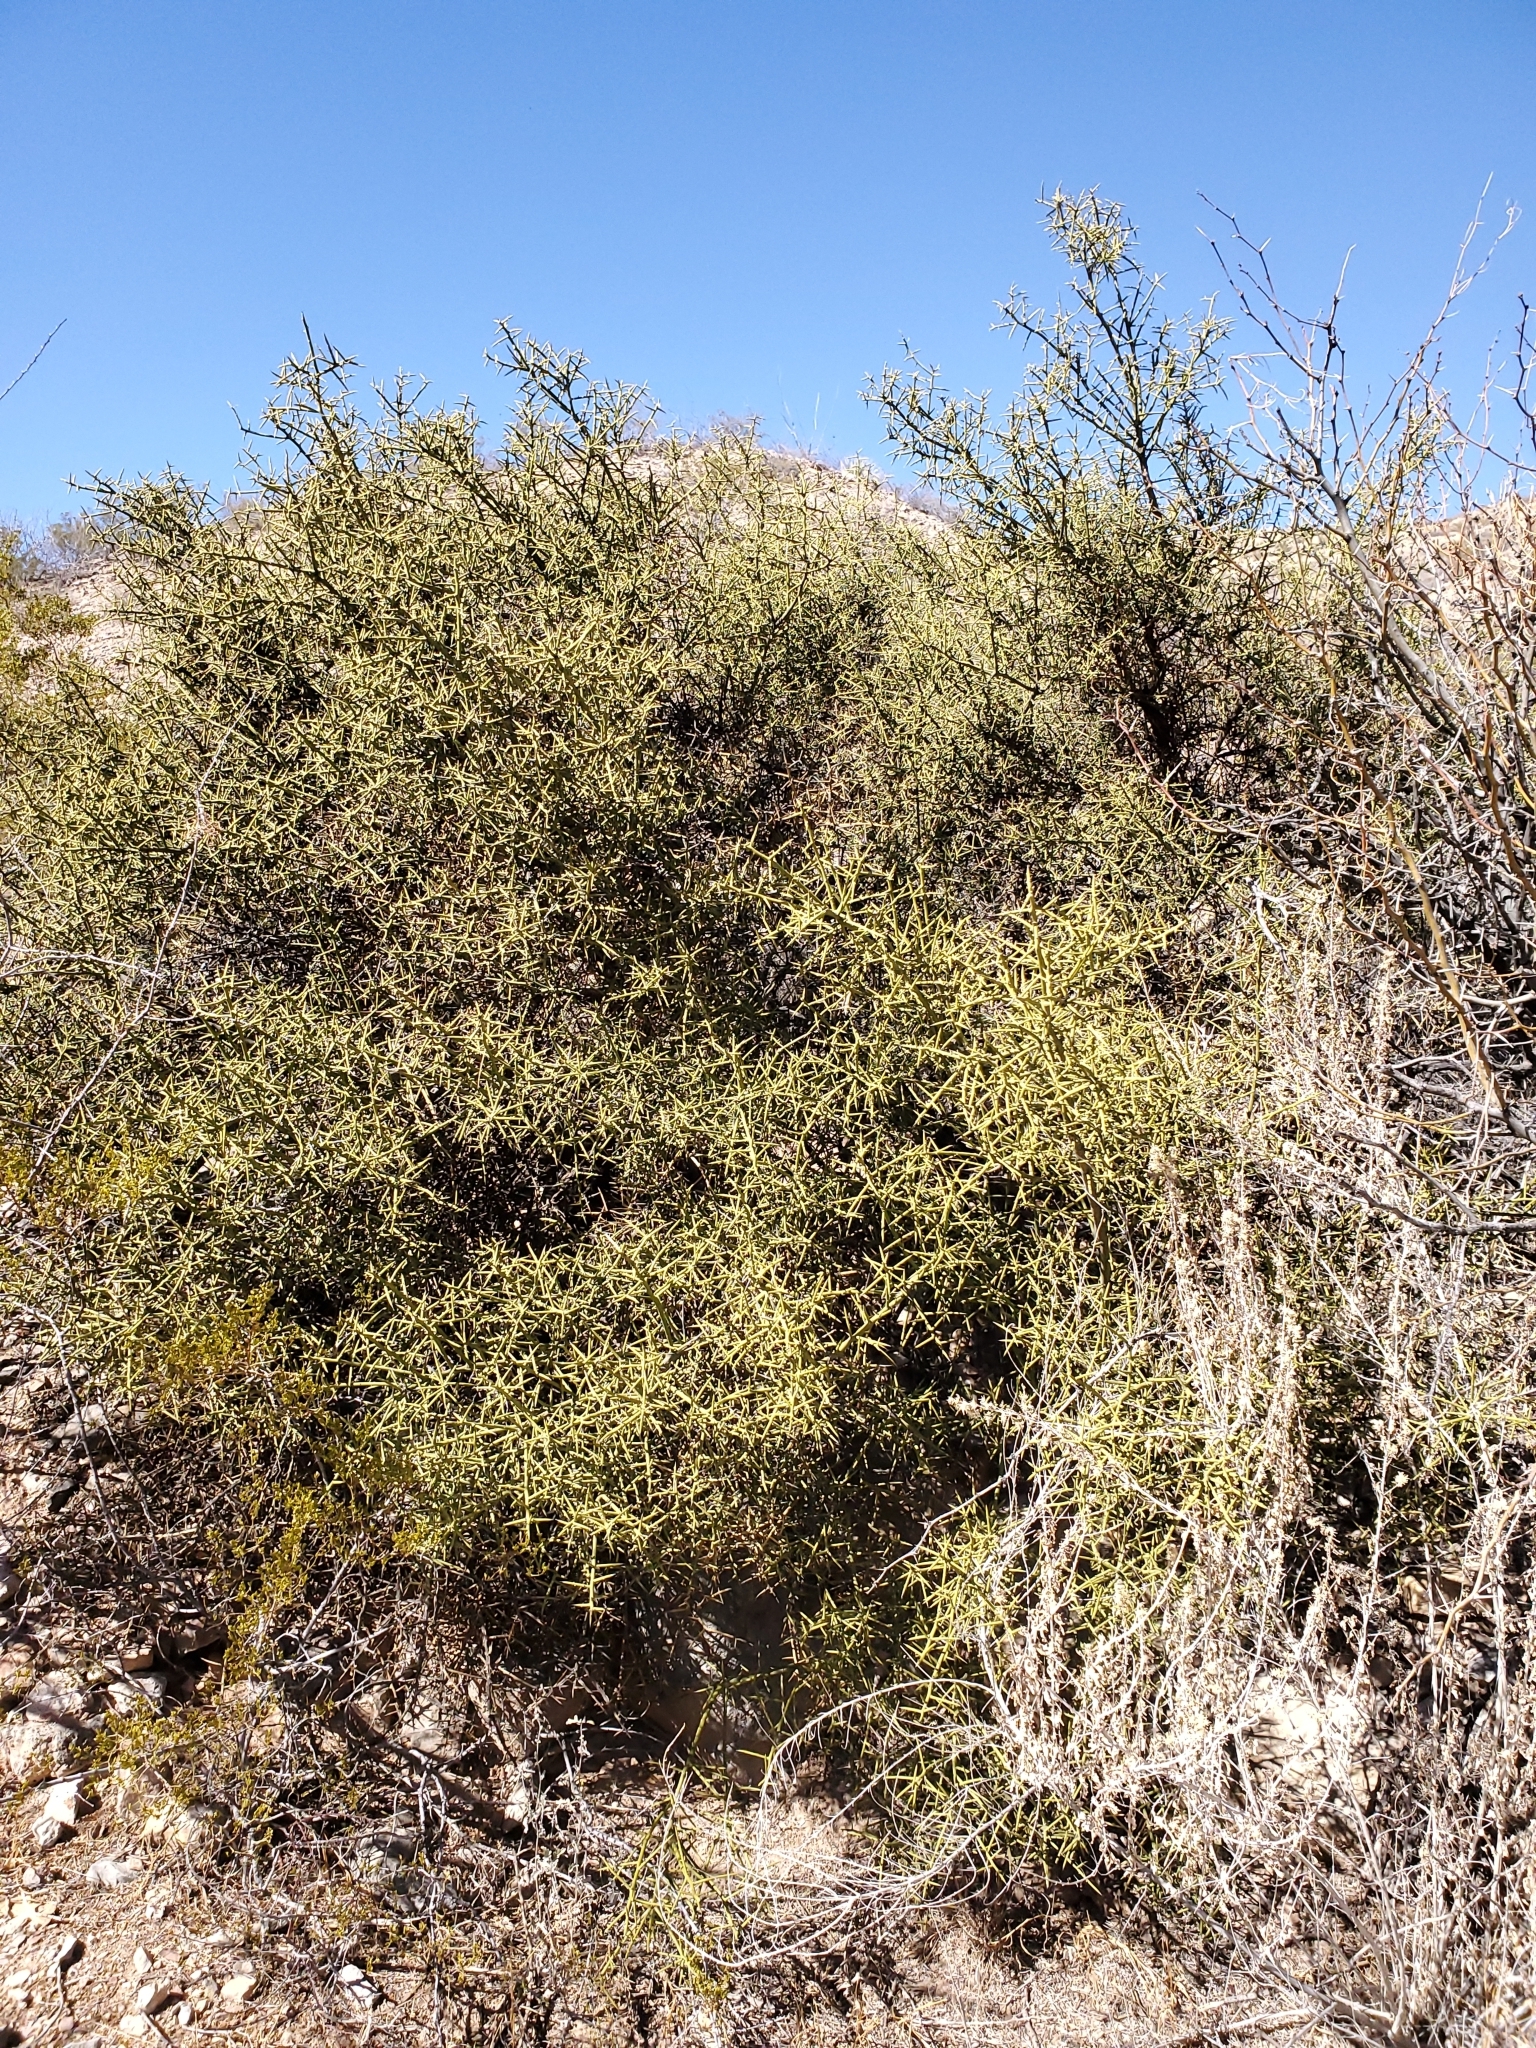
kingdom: Plantae
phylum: Tracheophyta
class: Magnoliopsida
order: Brassicales
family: Koeberliniaceae
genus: Koeberlinia
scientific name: Koeberlinia spinosa
